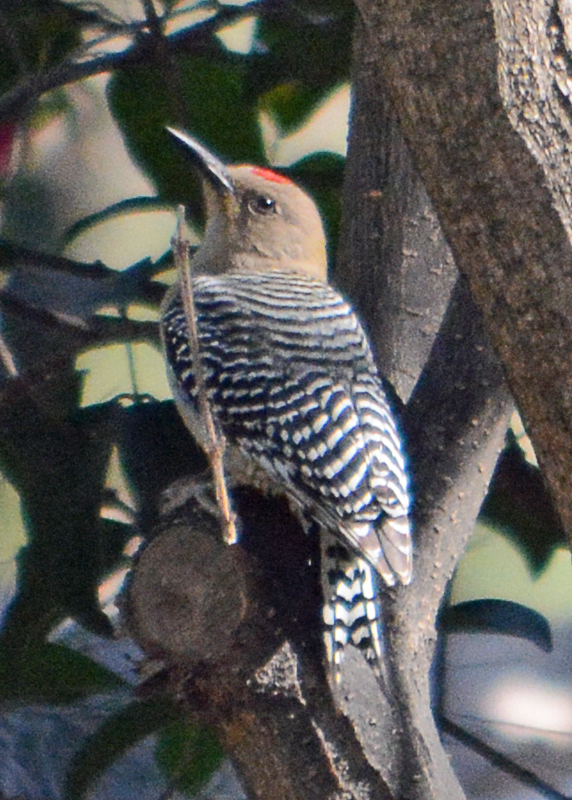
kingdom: Animalia
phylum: Chordata
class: Aves
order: Piciformes
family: Picidae
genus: Melanerpes
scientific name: Melanerpes uropygialis
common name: Gila woodpecker
